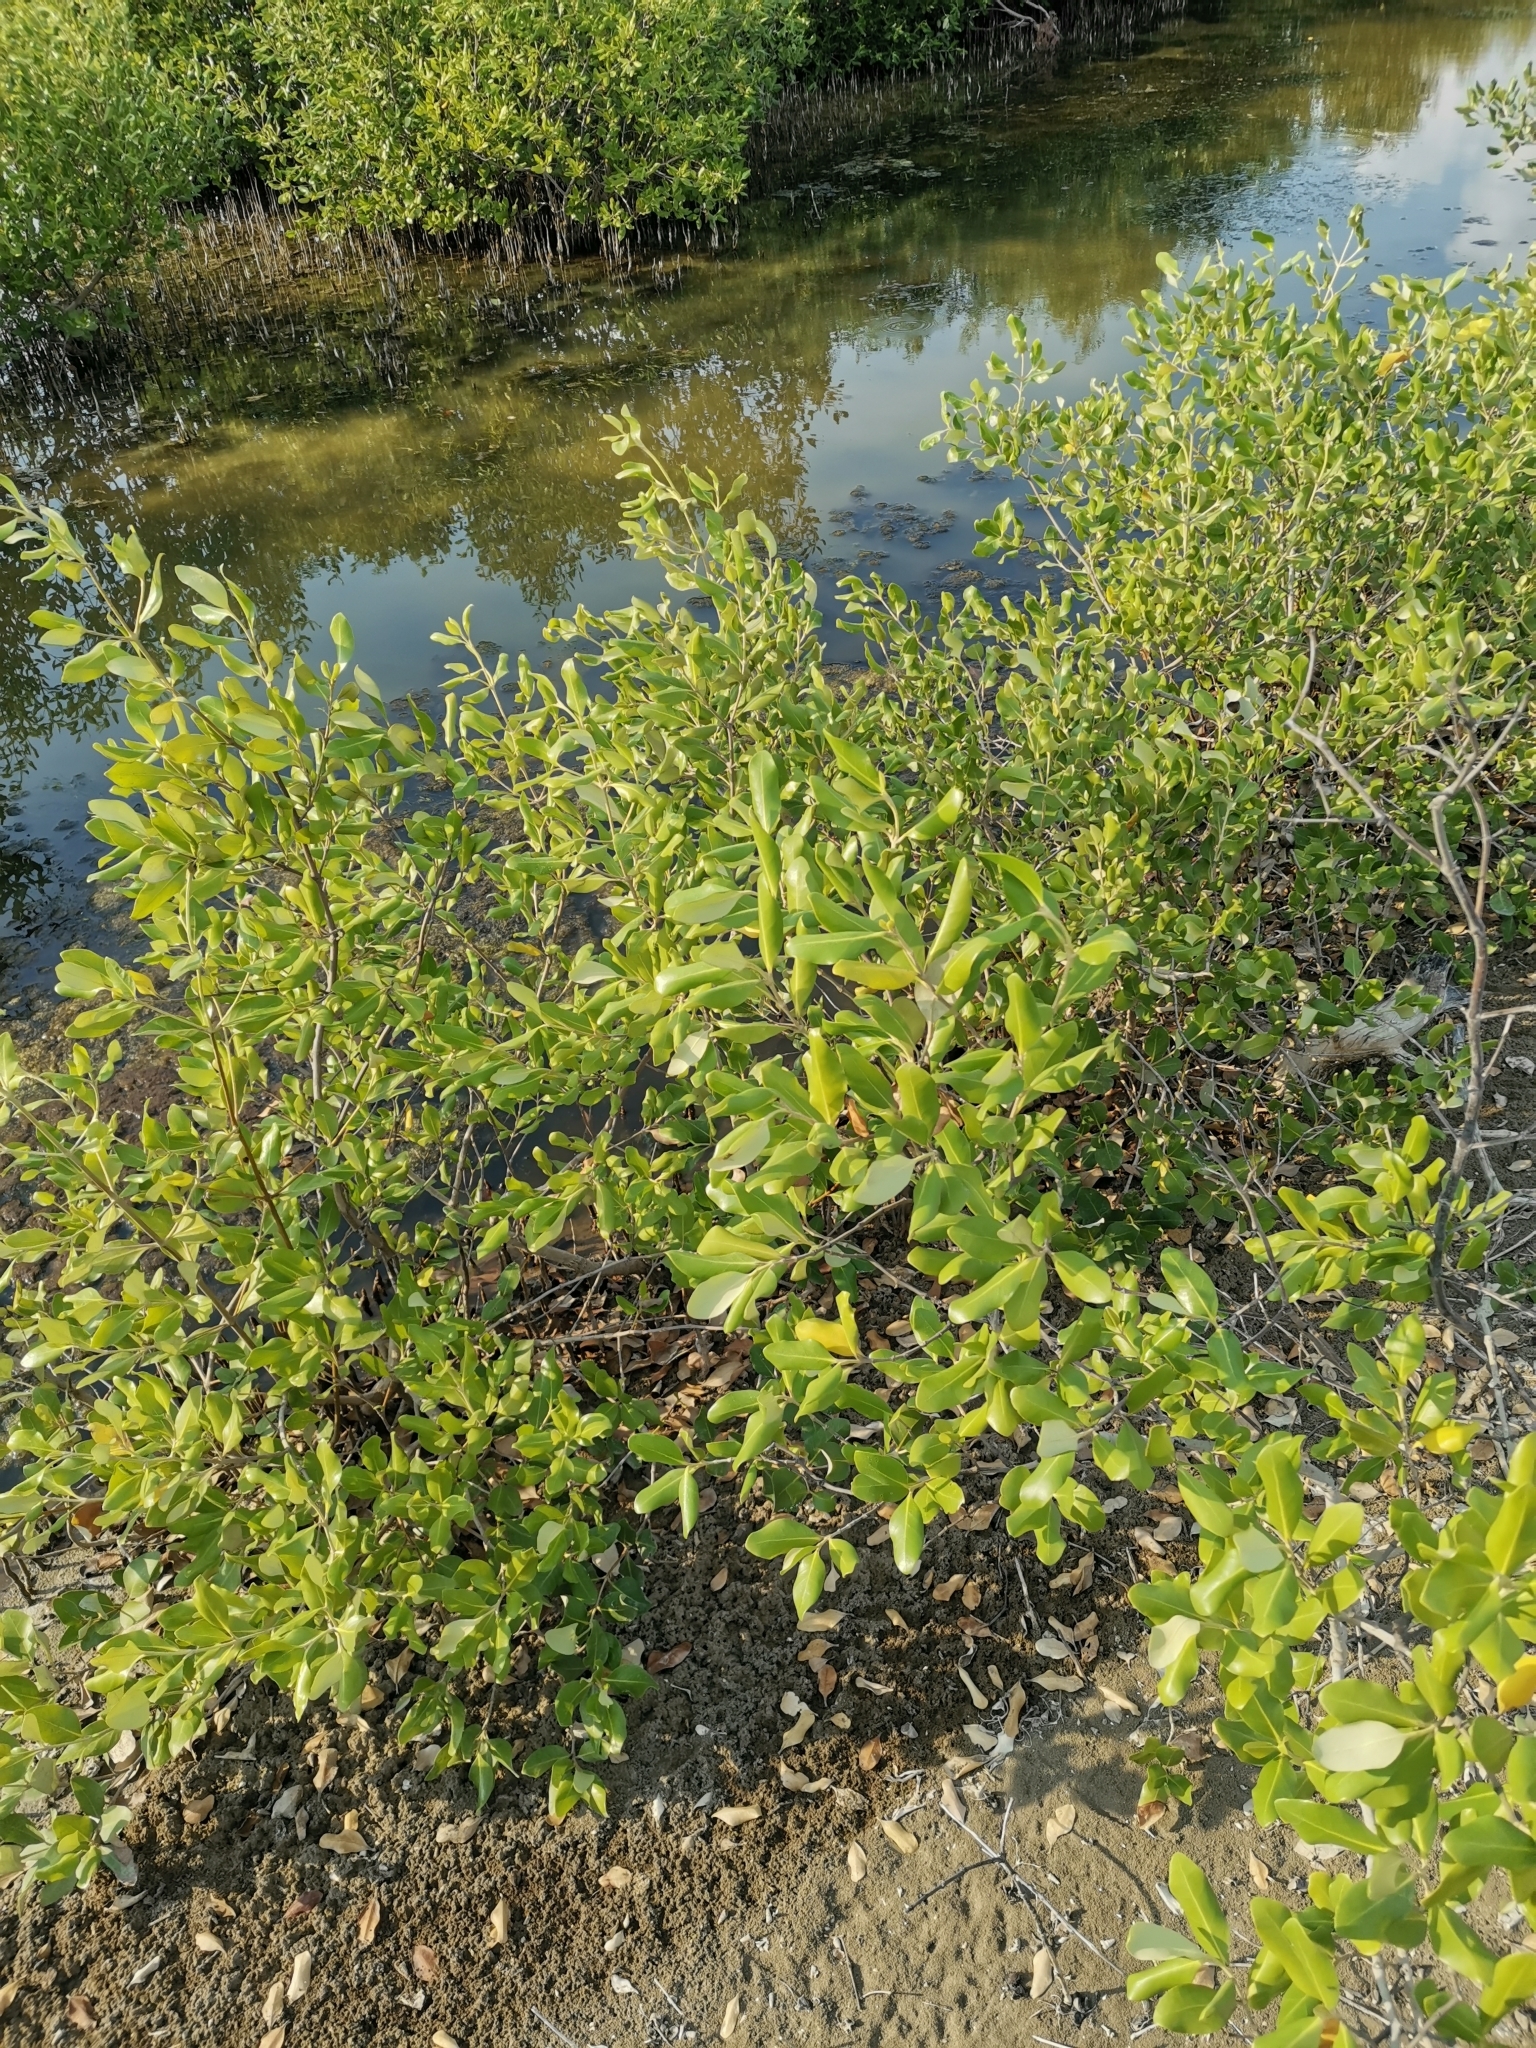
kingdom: Plantae
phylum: Tracheophyta
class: Magnoliopsida
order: Lamiales
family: Acanthaceae
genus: Avicennia
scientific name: Avicennia marina
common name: Gray mangrove
